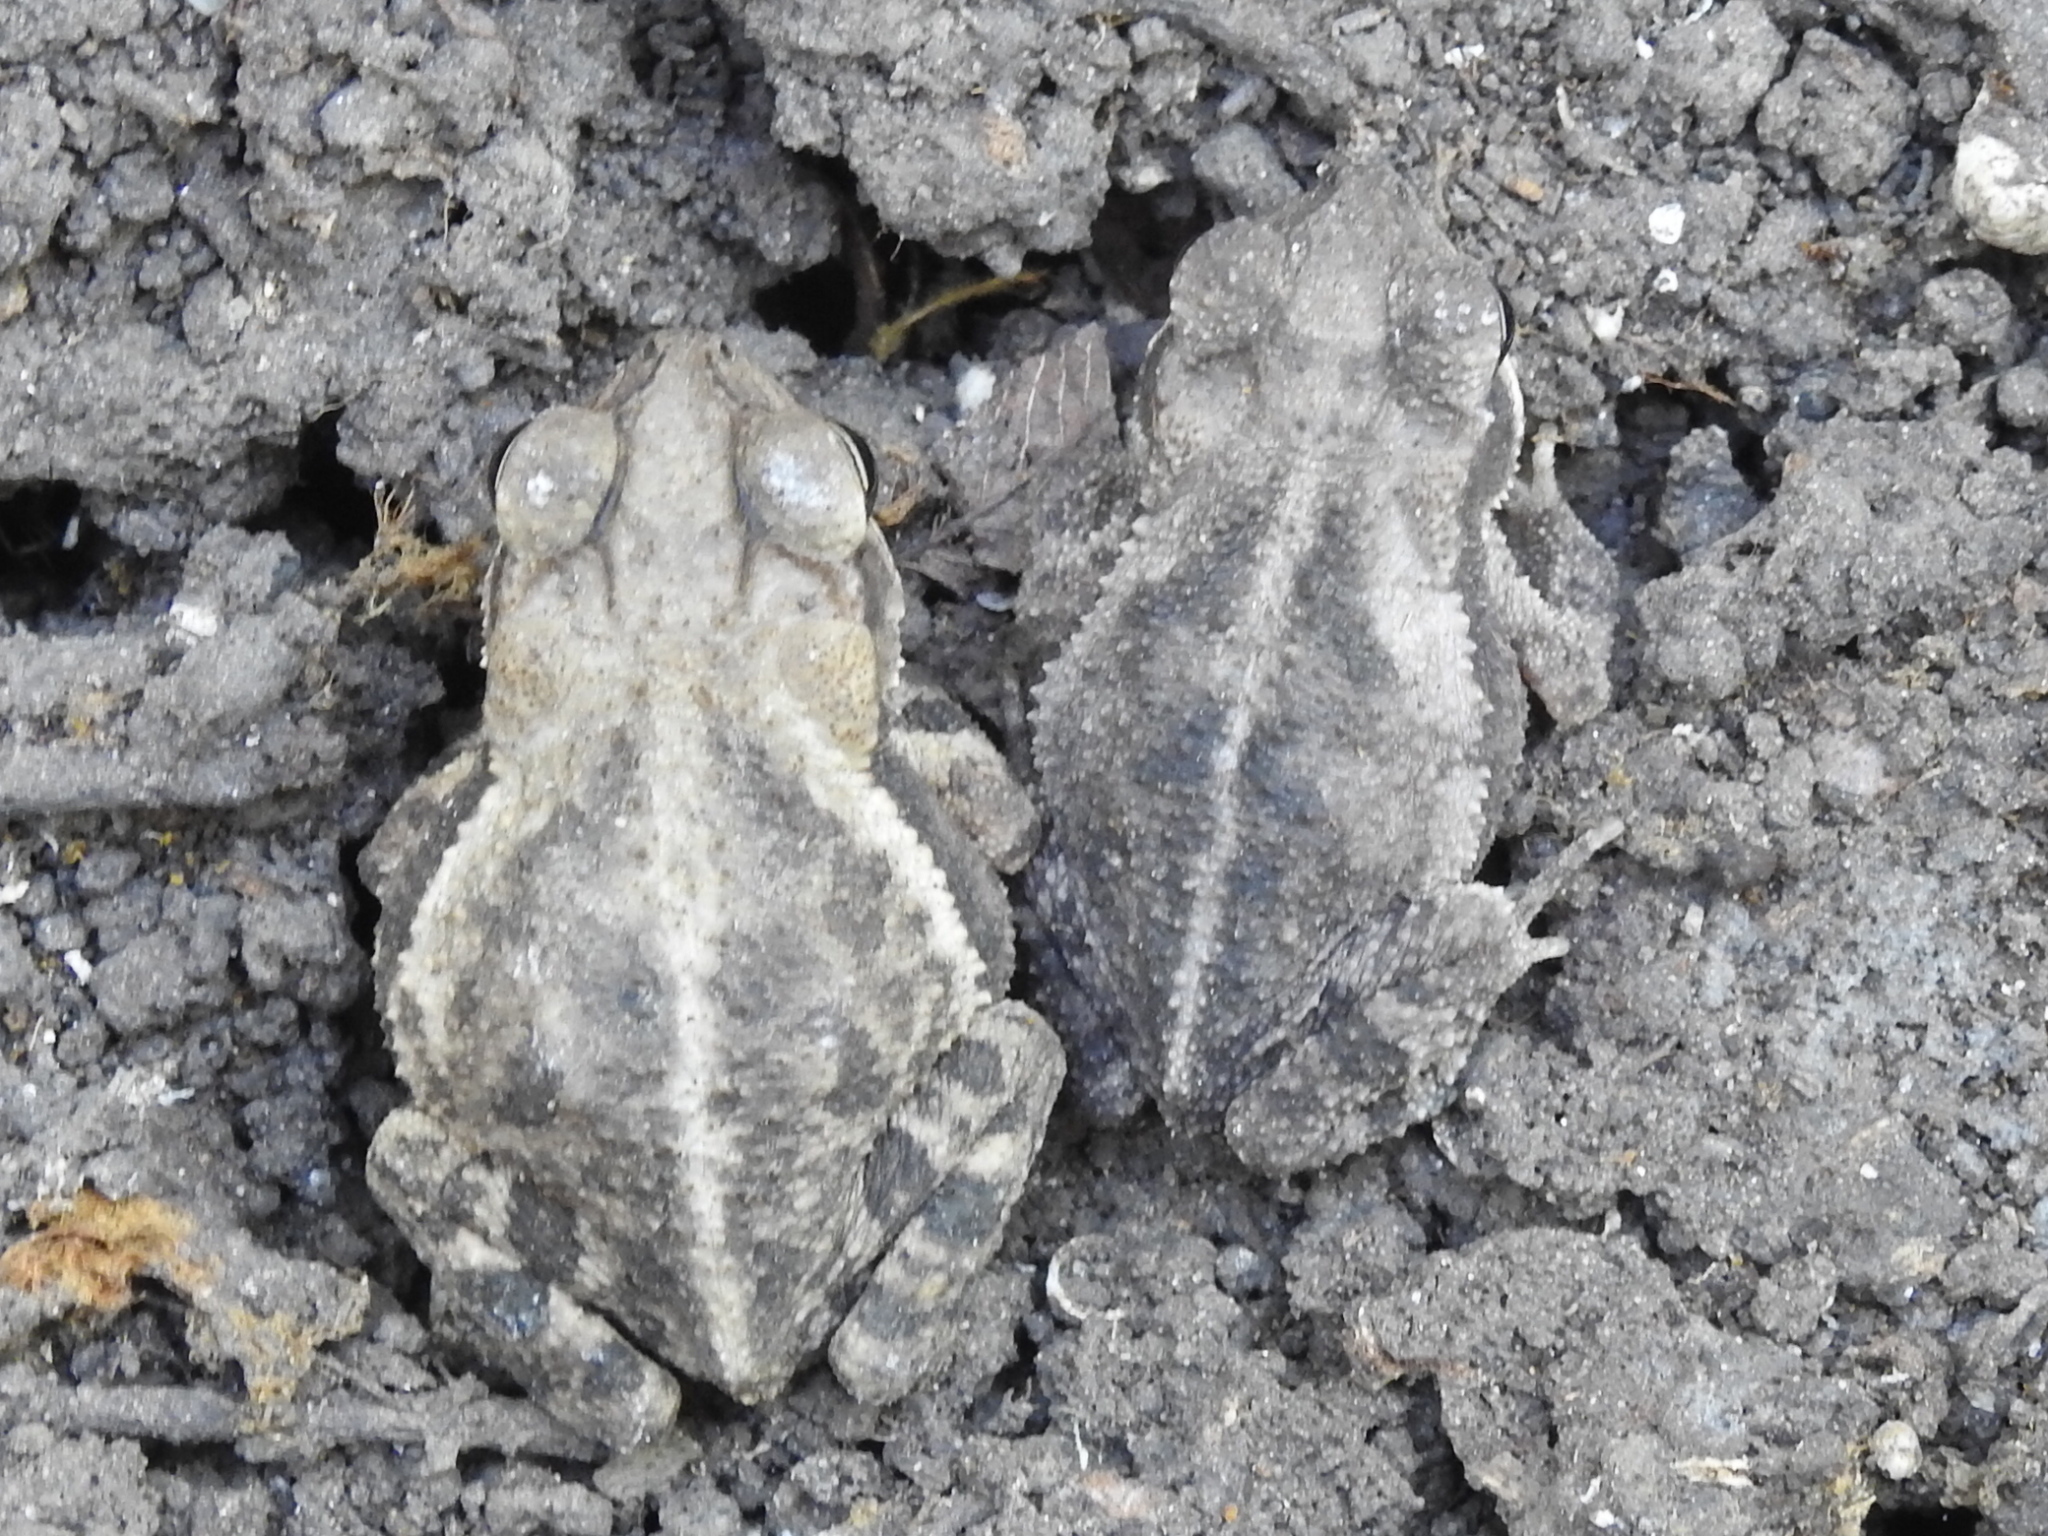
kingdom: Animalia
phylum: Chordata
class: Amphibia
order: Anura
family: Bufonidae
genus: Incilius
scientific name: Incilius nebulifer
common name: Gulf coast toad
